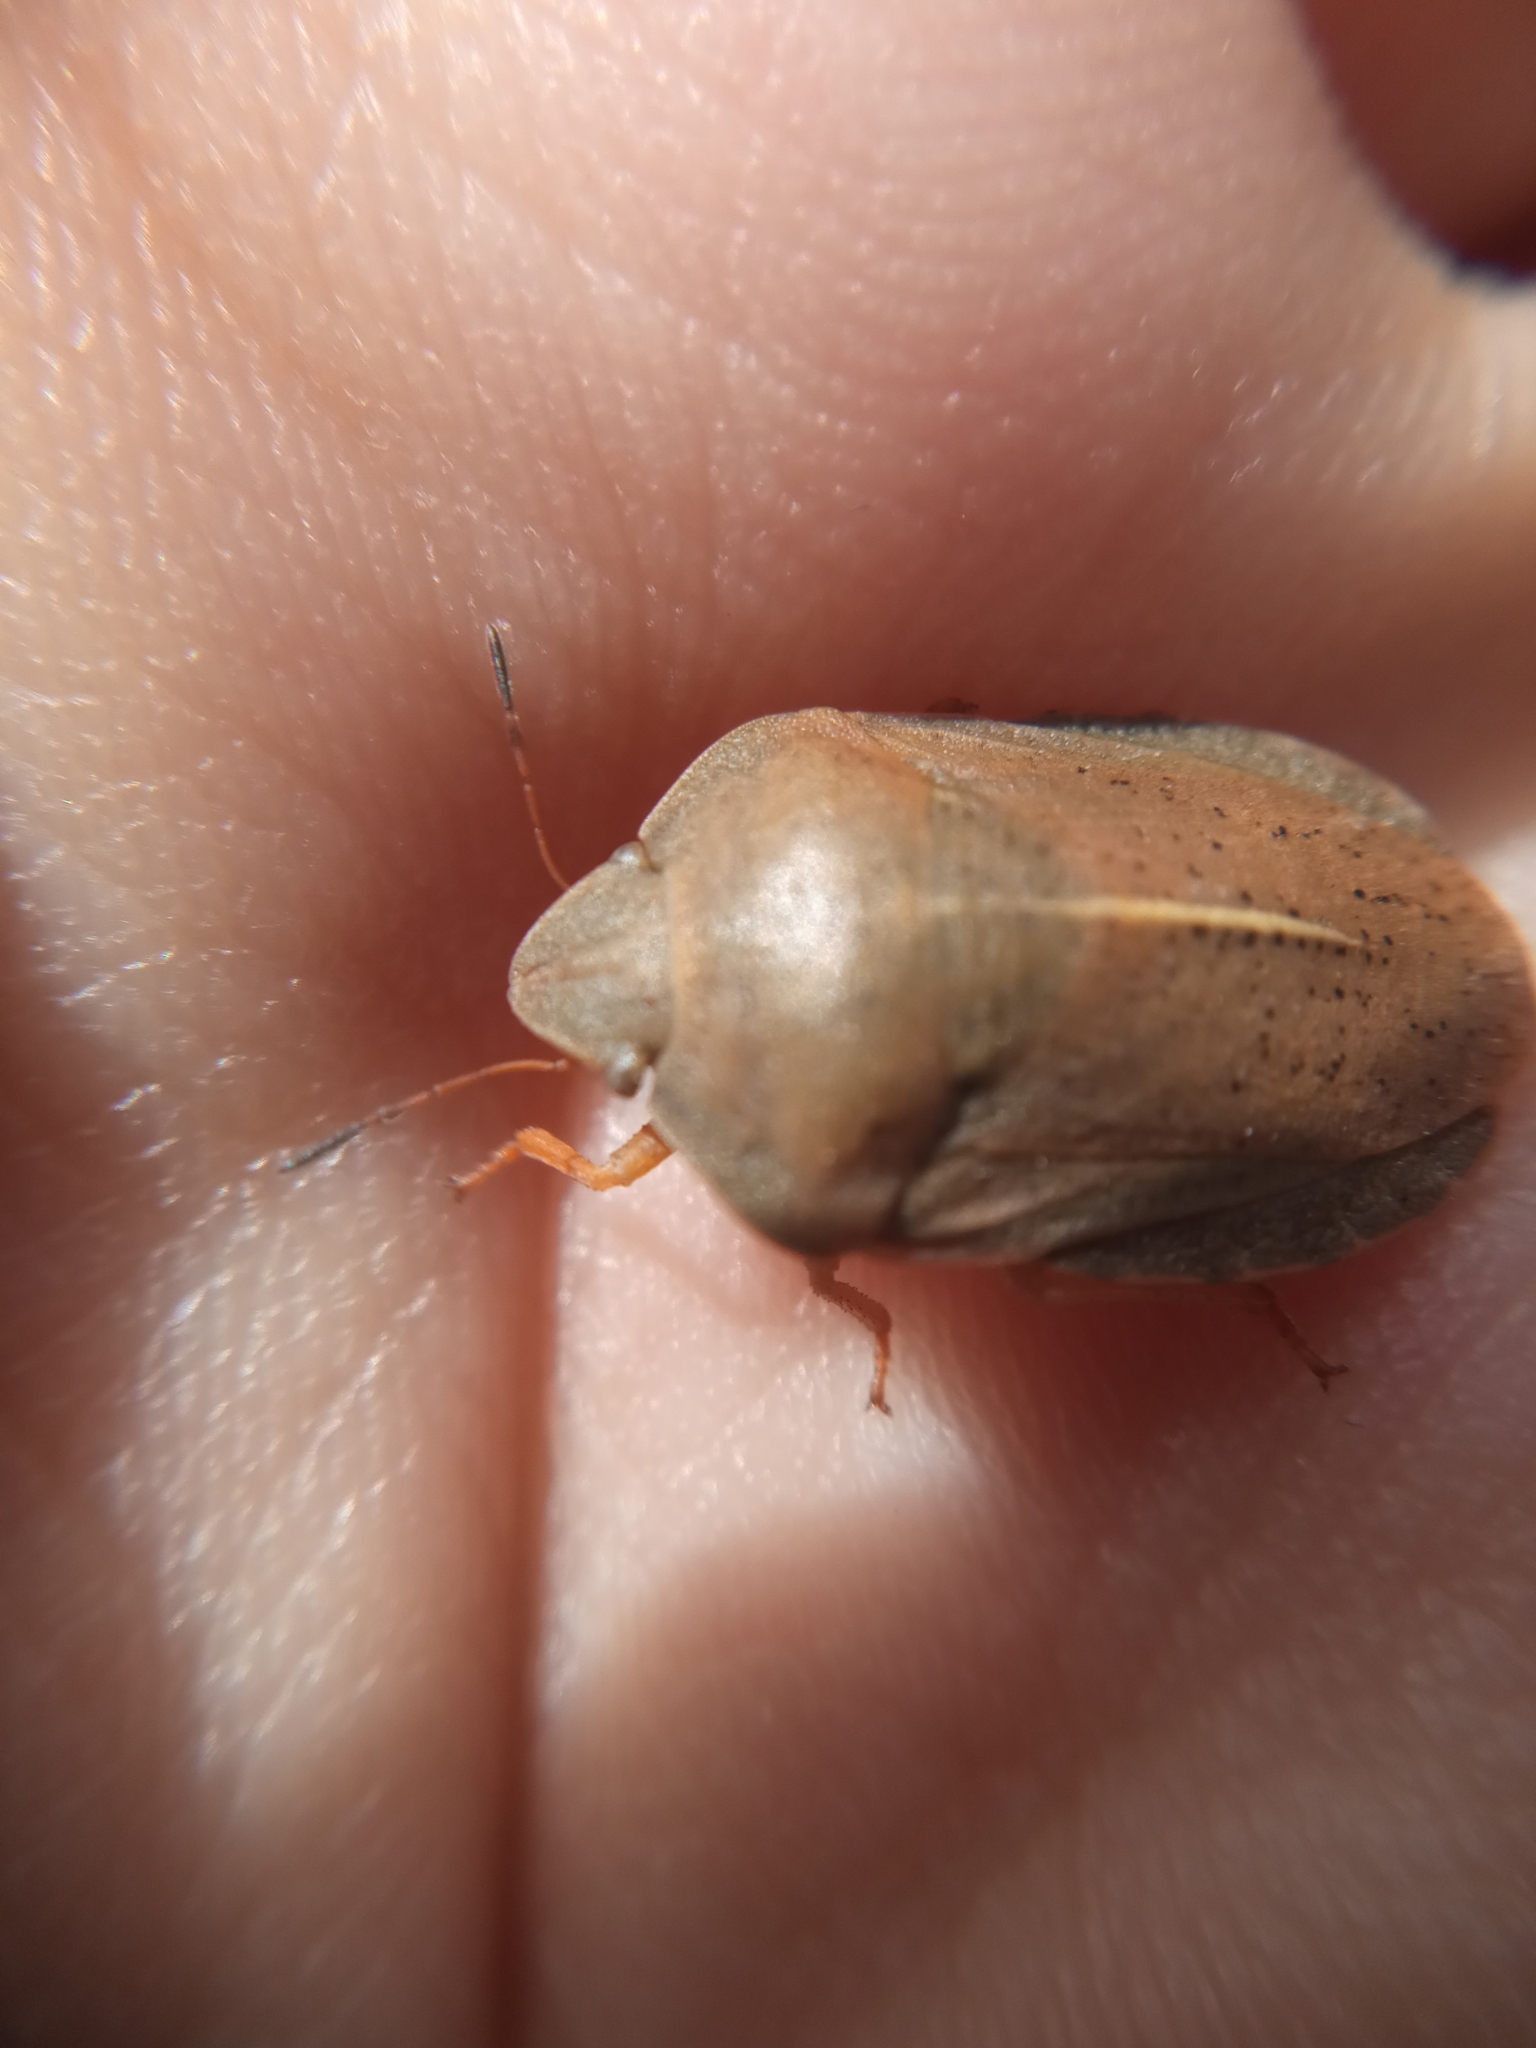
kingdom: Animalia
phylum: Arthropoda
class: Insecta
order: Hemiptera
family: Scutelleridae
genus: Eurygaster
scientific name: Eurygaster austriaca
